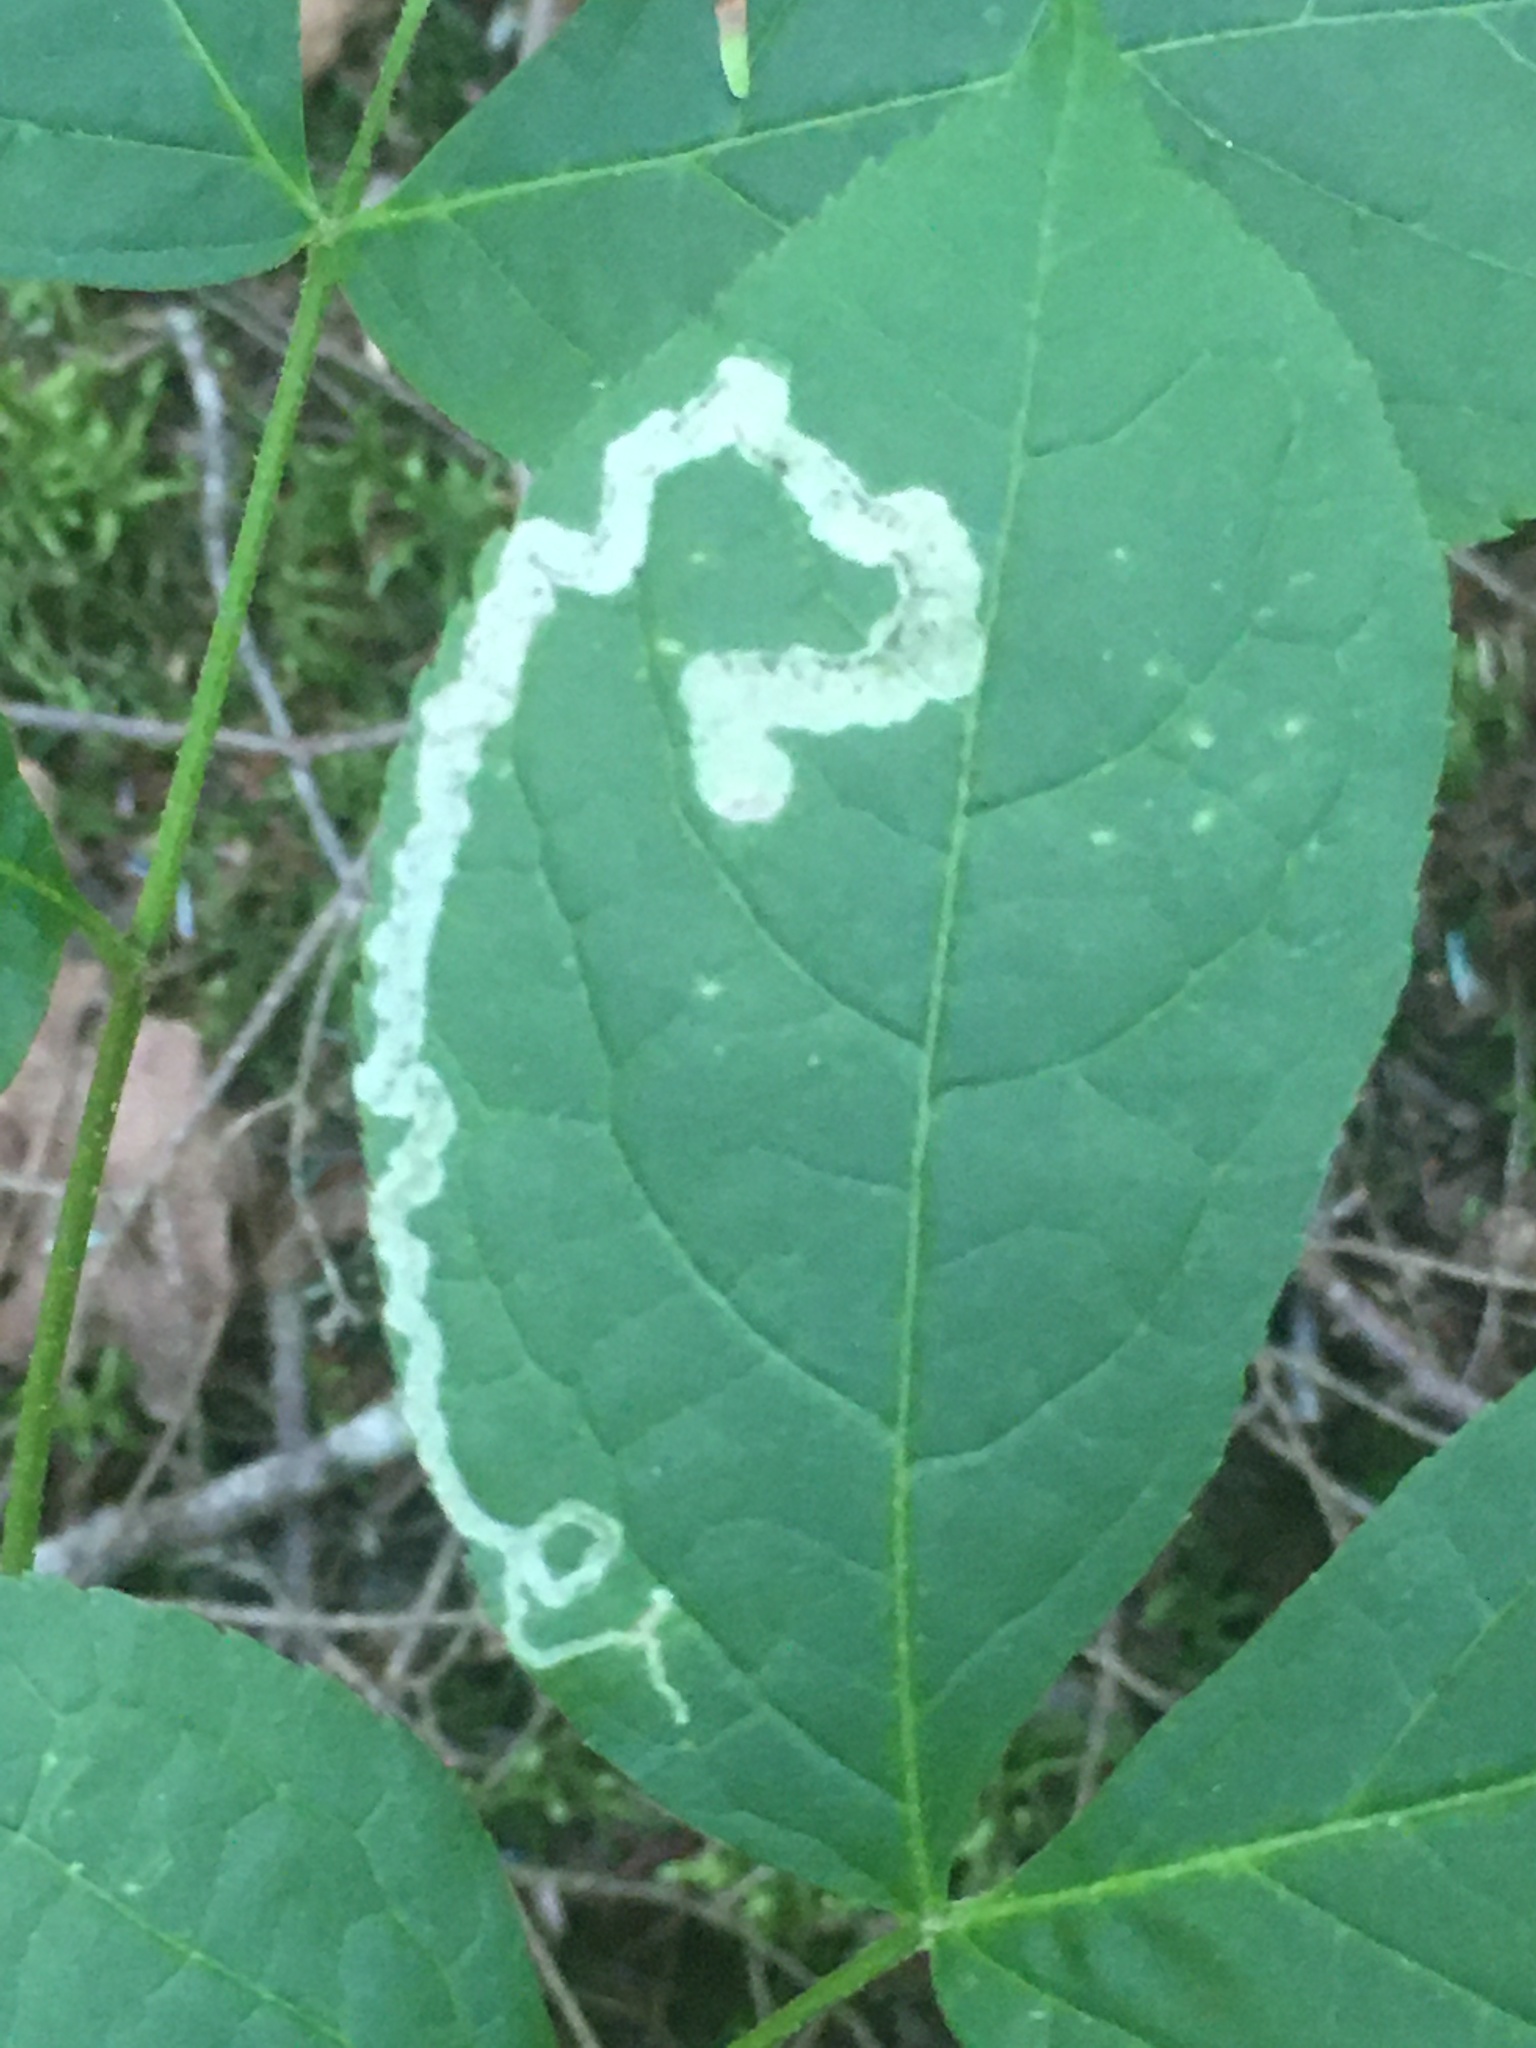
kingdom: Animalia
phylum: Arthropoda
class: Insecta
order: Diptera
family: Agromyzidae
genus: Phytomyza
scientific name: Phytomyza aralivora
